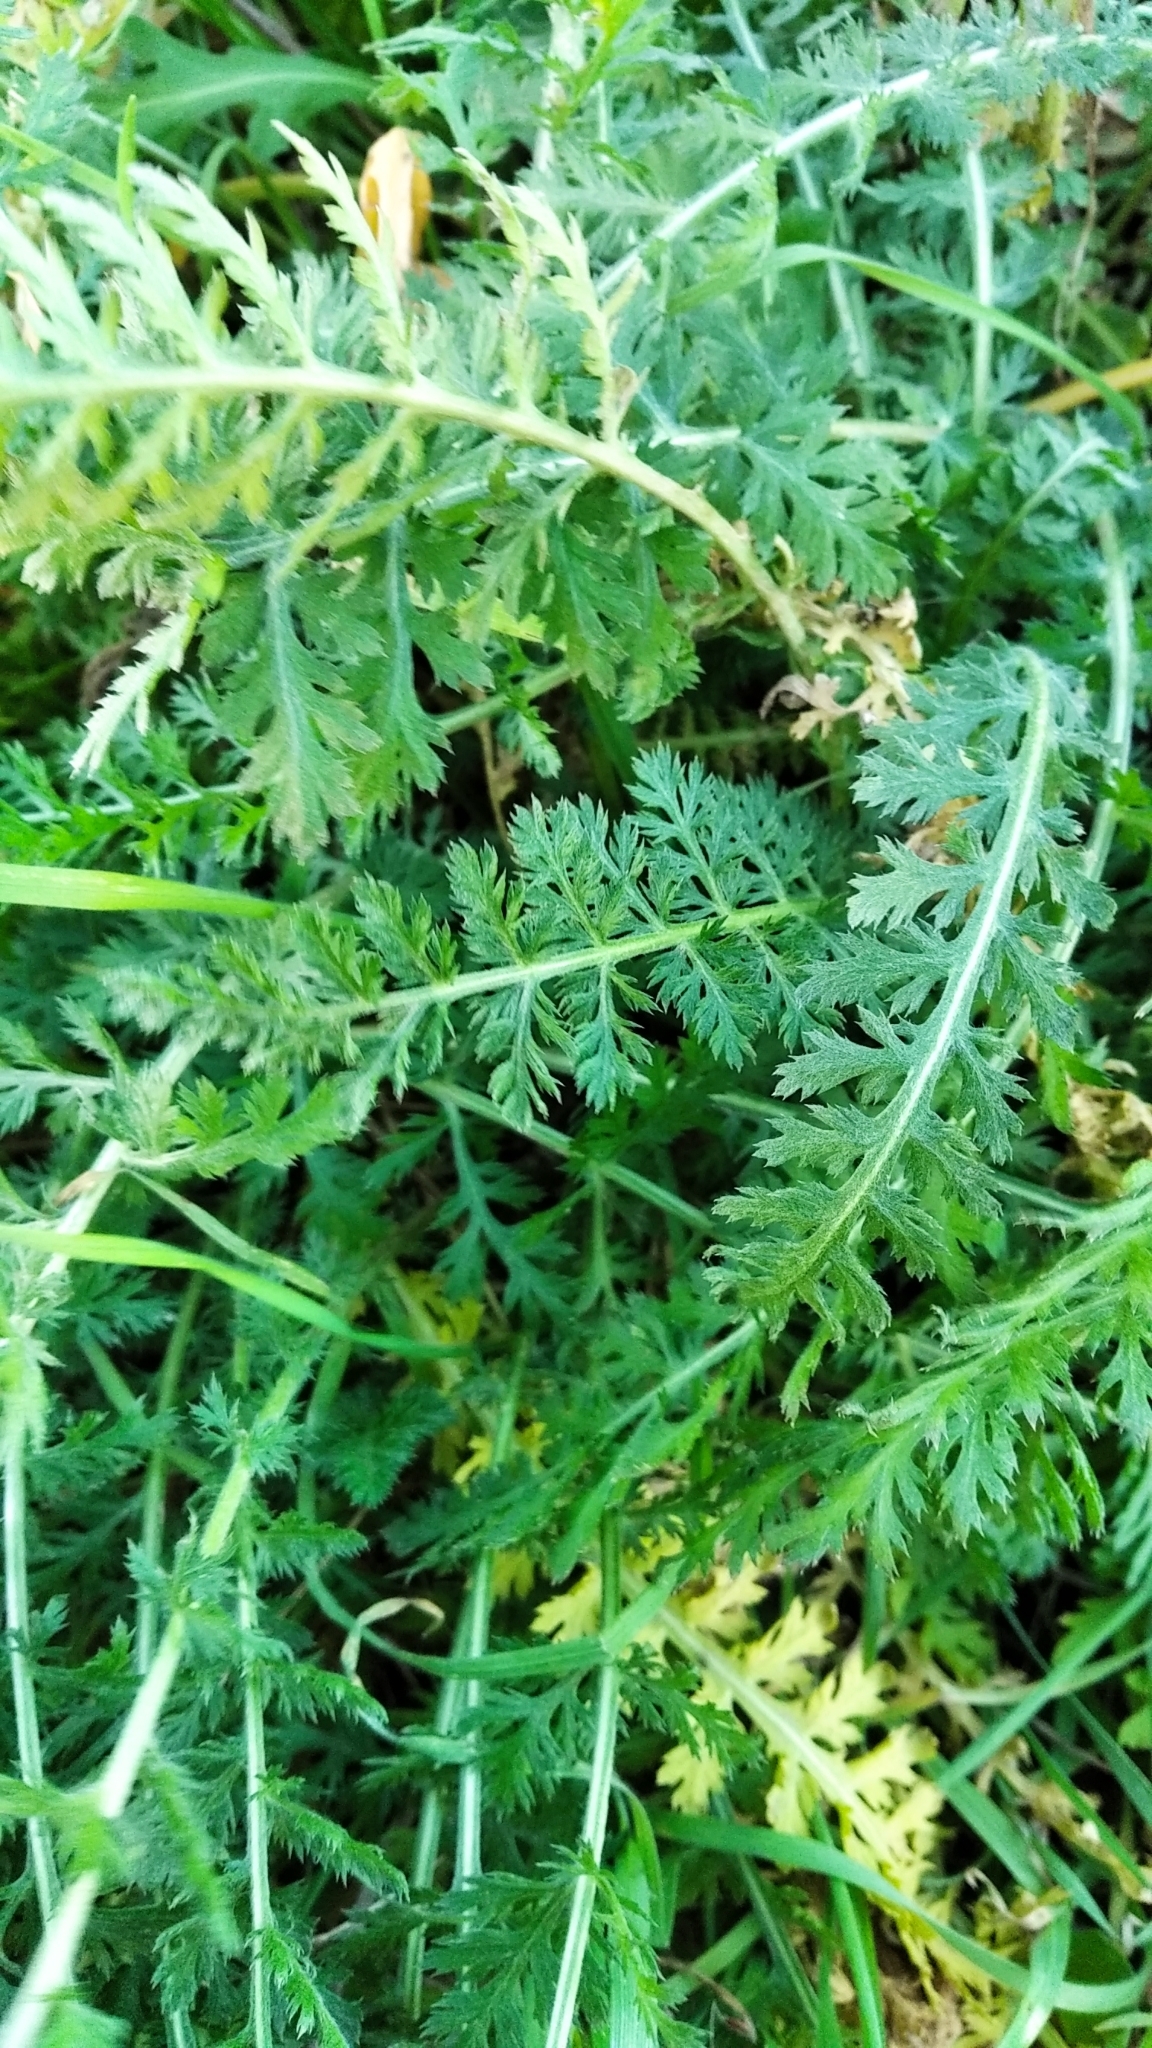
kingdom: Plantae
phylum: Tracheophyta
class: Magnoliopsida
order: Asterales
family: Asteraceae
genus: Achillea
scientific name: Achillea millefolium
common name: Yarrow
